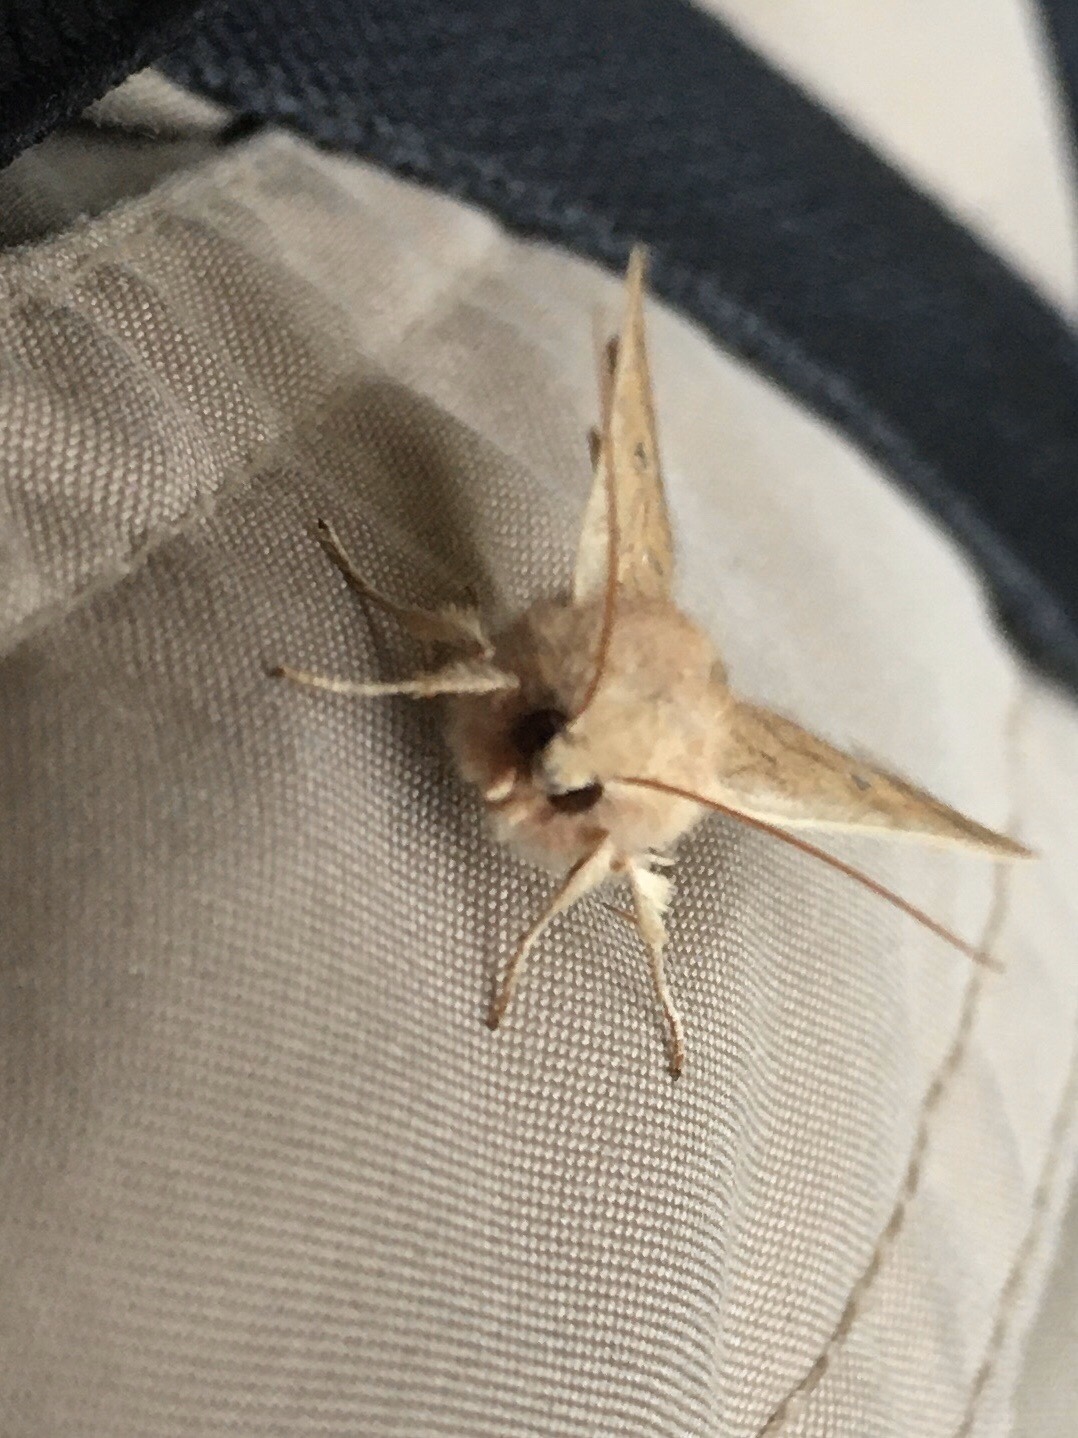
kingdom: Animalia
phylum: Arthropoda
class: Insecta
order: Lepidoptera
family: Noctuidae
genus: Agrochola
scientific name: Agrochola bicolorago
